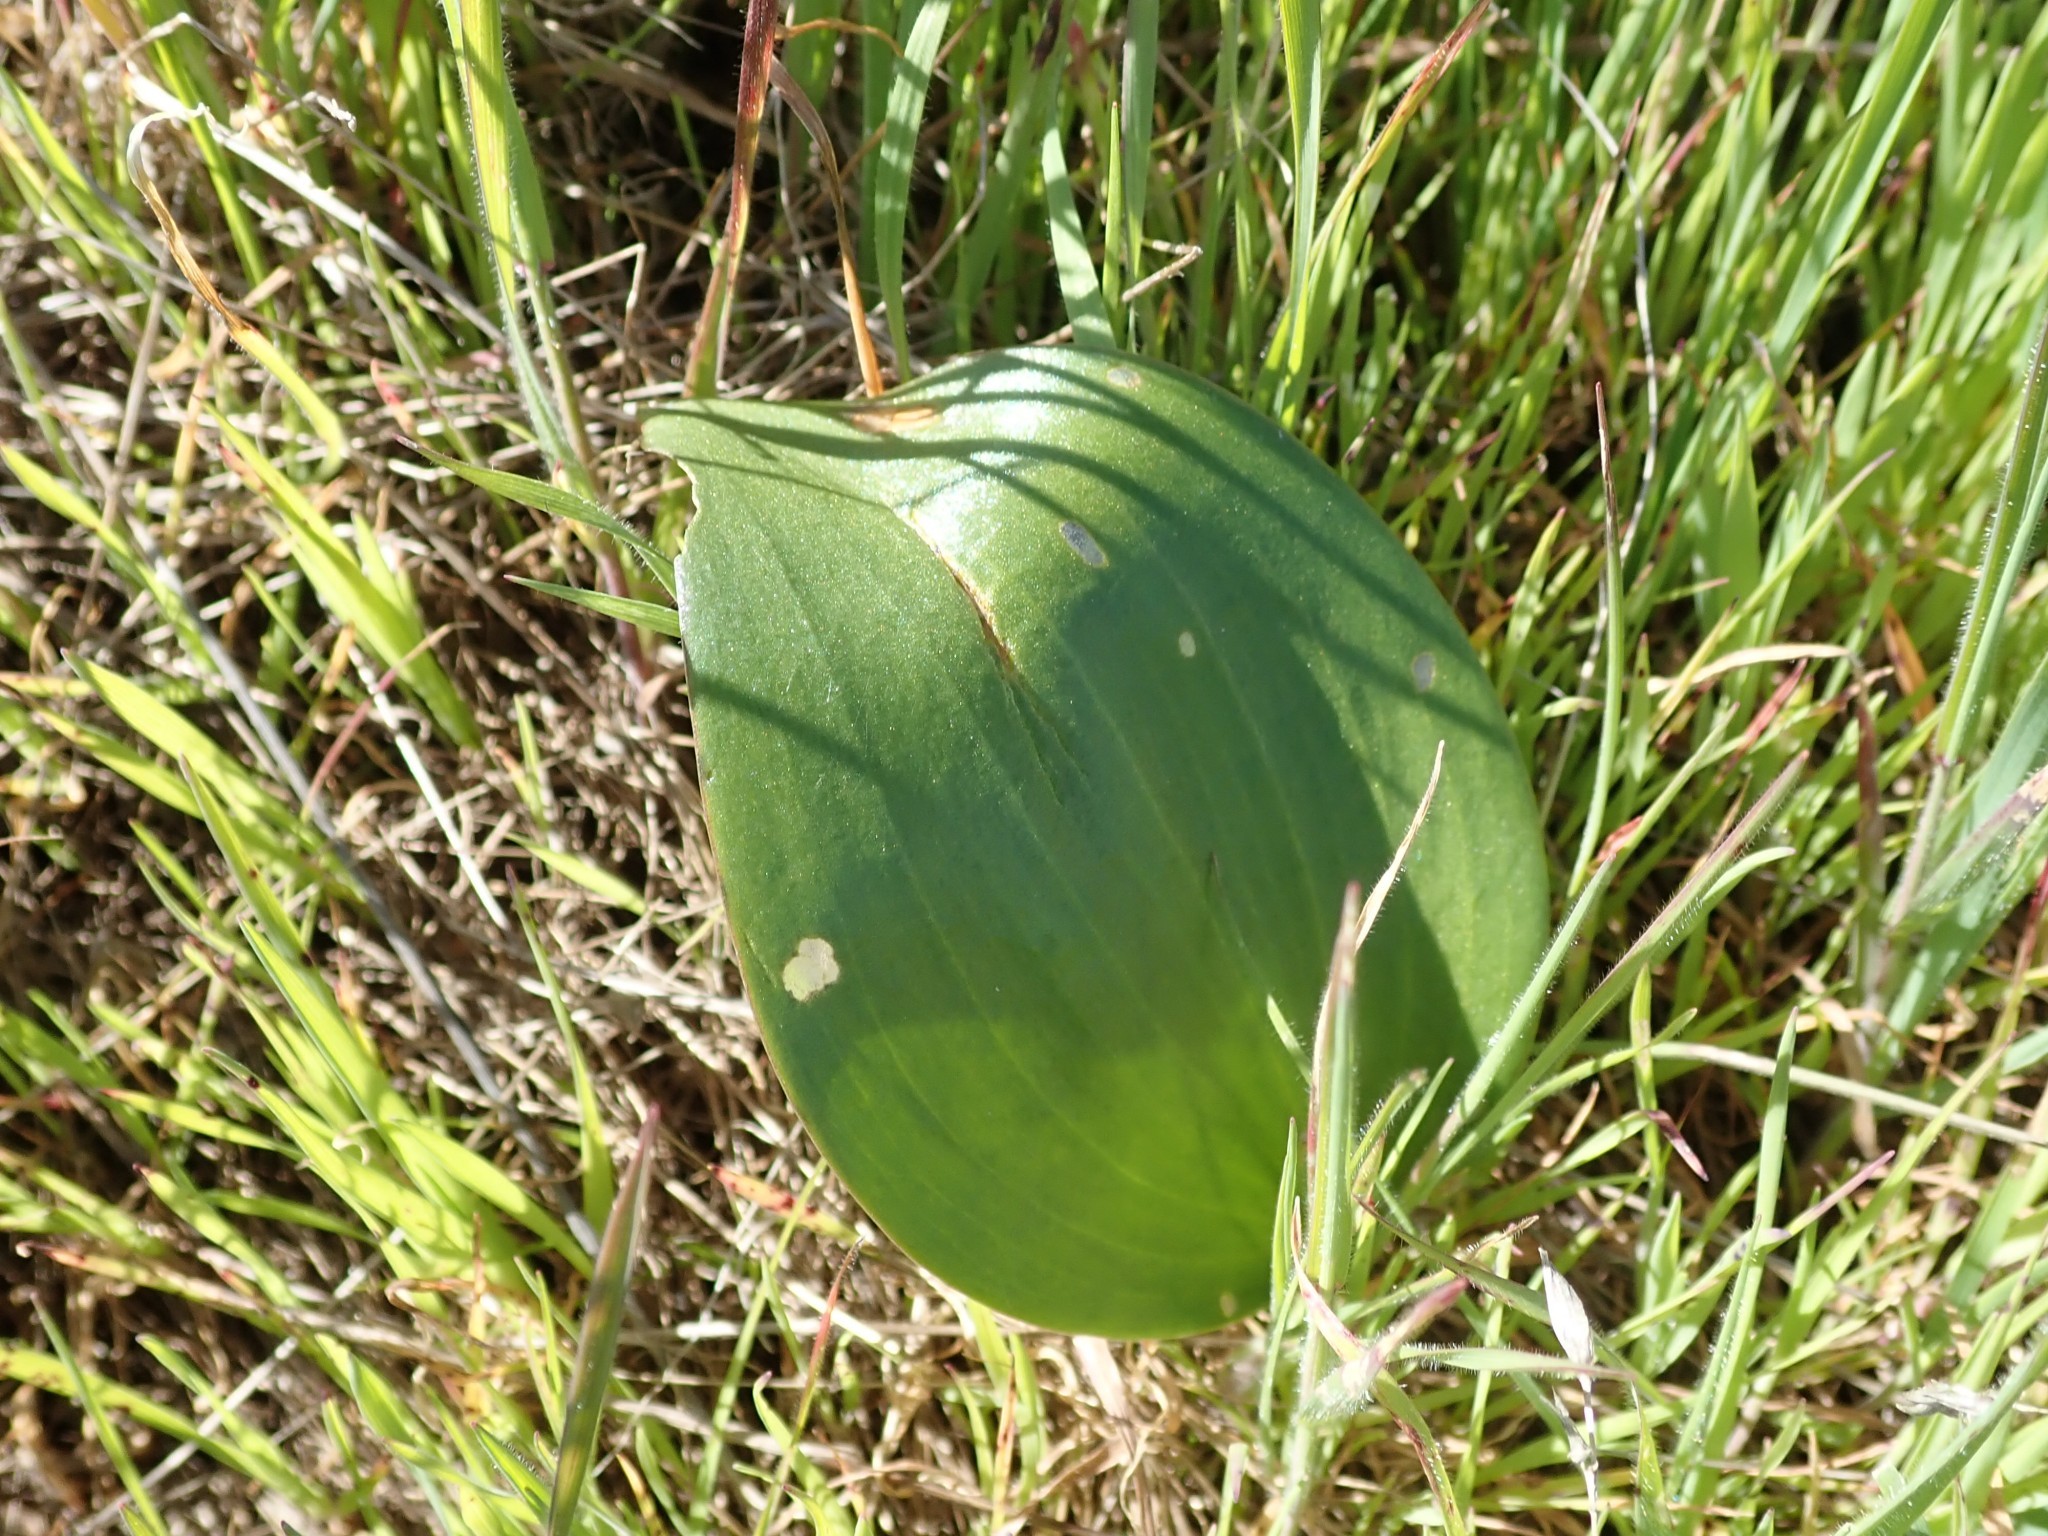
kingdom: Plantae
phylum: Tracheophyta
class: Liliopsida
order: Liliales
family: Liliaceae
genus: Fritillaria
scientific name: Fritillaria affinis
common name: Ojai fritillary
